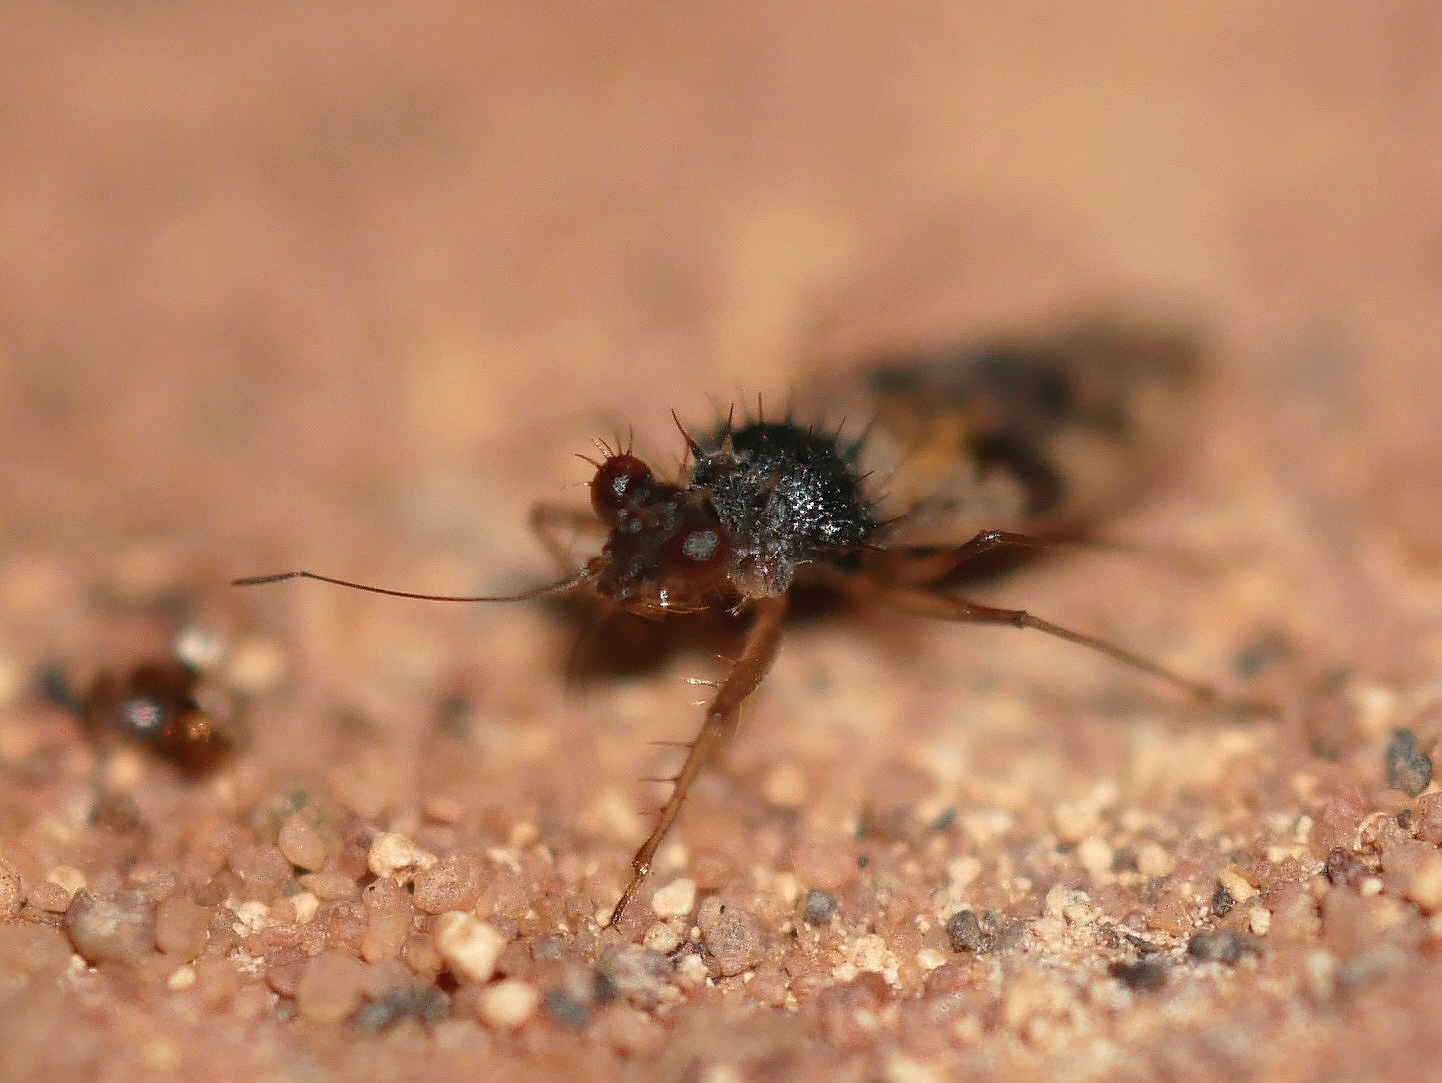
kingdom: Animalia
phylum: Arthropoda
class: Insecta
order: Hemiptera
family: Leptopodidae
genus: Patapius
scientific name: Patapius spinosus
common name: Spiny-legged bug
